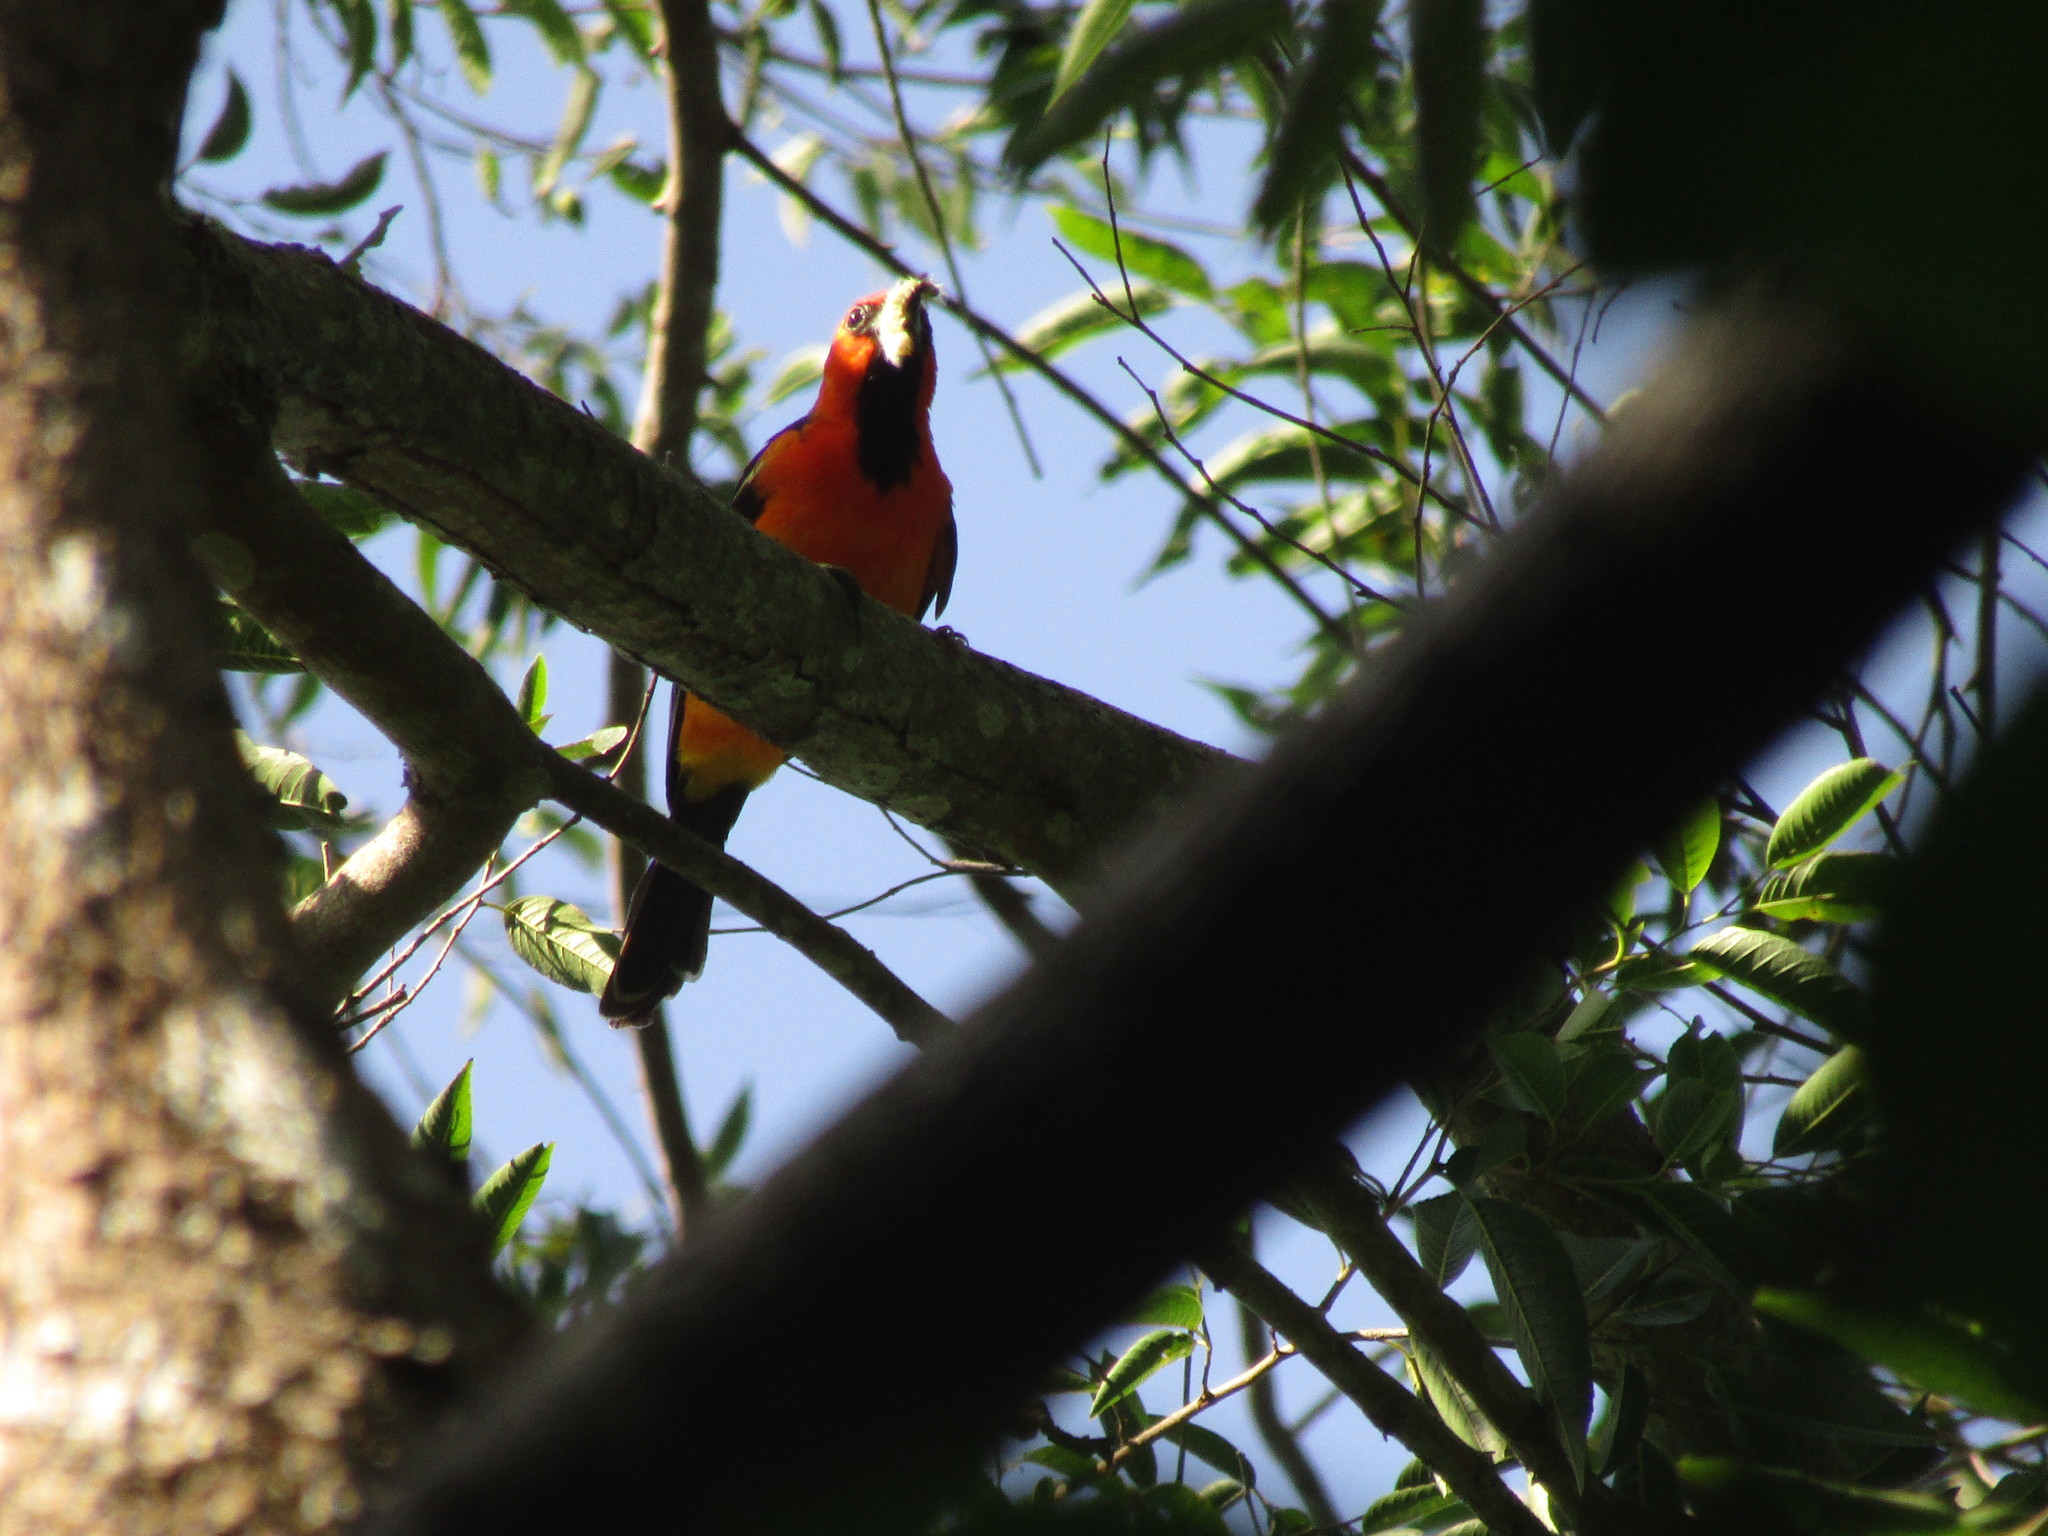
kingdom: Animalia
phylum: Chordata
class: Aves
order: Passeriformes
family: Icteridae
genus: Icterus
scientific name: Icterus pustulatus
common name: Streak-backed oriole
